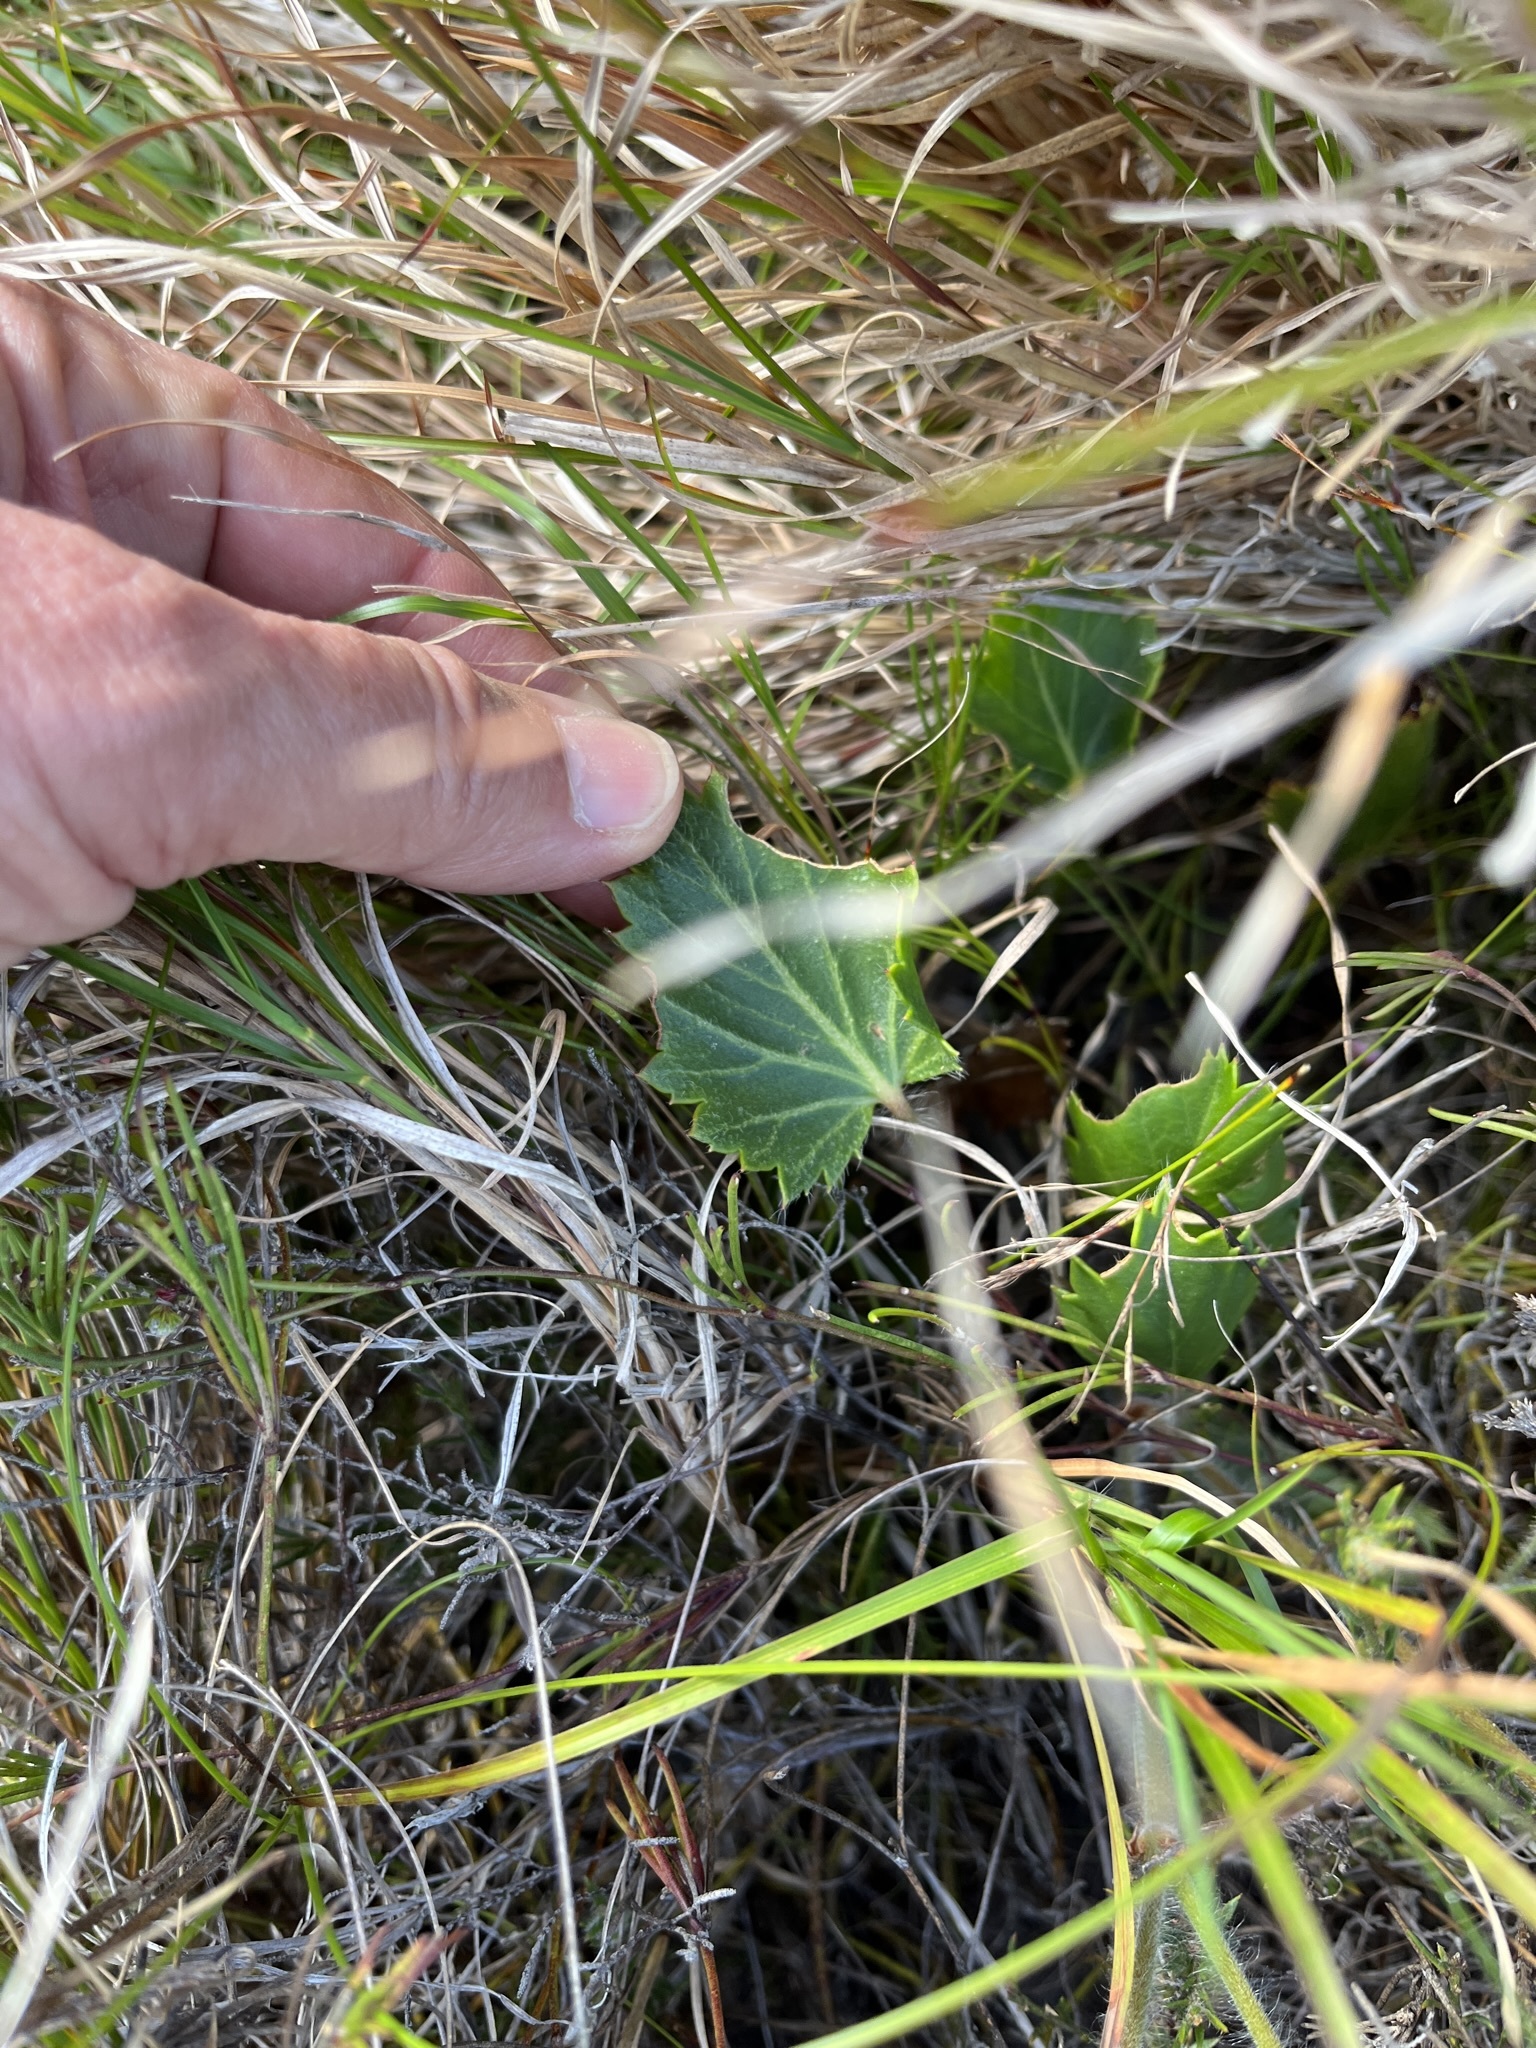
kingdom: Plantae
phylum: Tracheophyta
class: Magnoliopsida
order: Geraniales
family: Geraniaceae
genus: Pelargonium
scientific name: Pelargonium elegans
